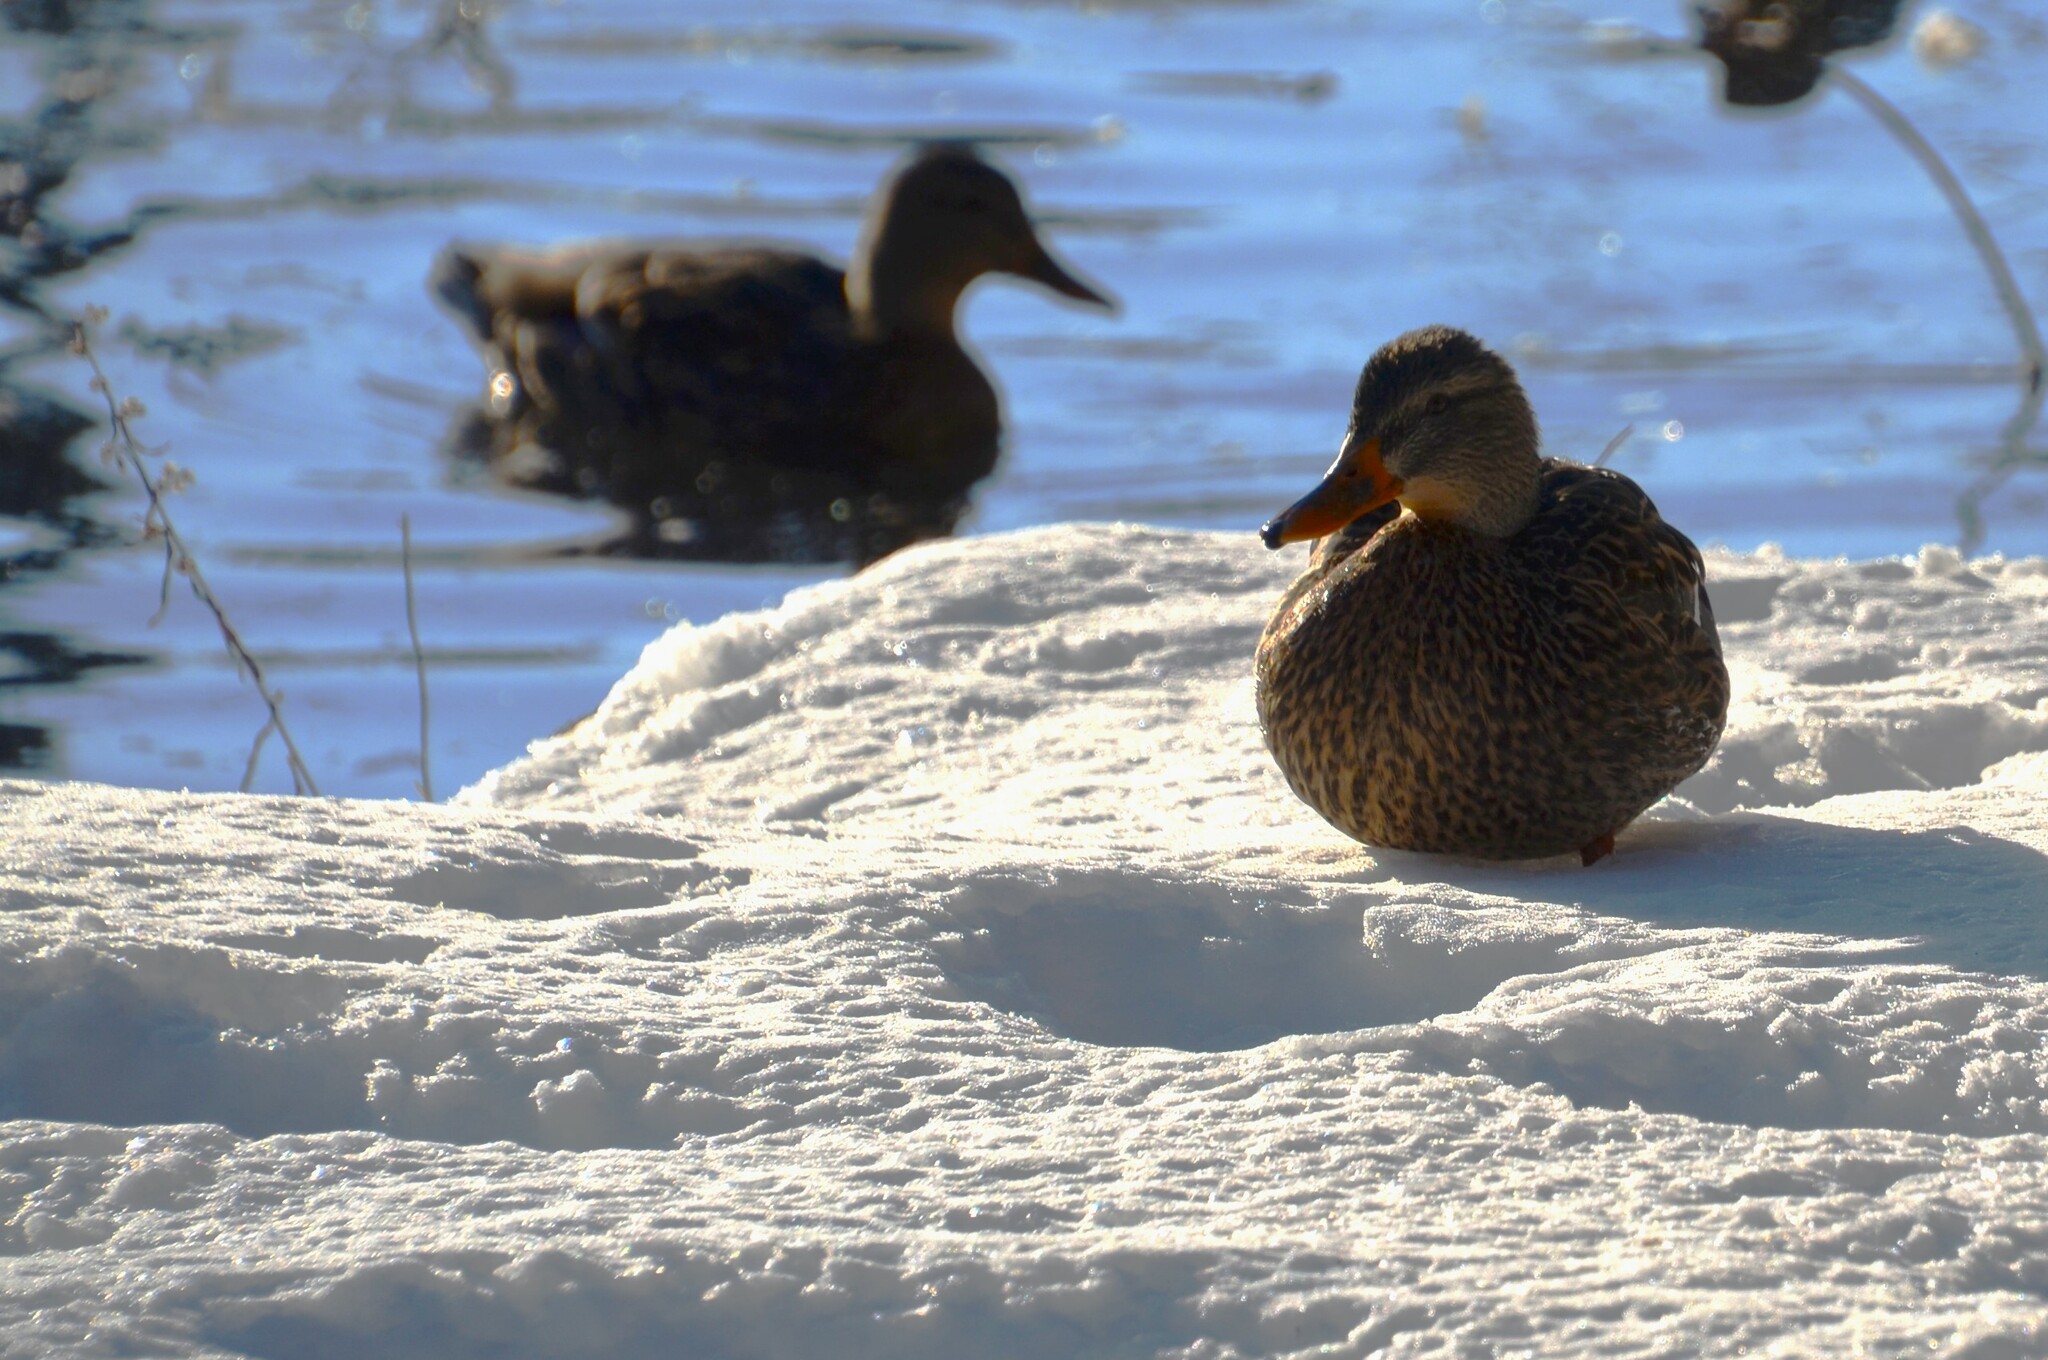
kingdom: Animalia
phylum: Chordata
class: Aves
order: Anseriformes
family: Anatidae
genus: Anas
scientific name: Anas platyrhynchos
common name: Mallard
